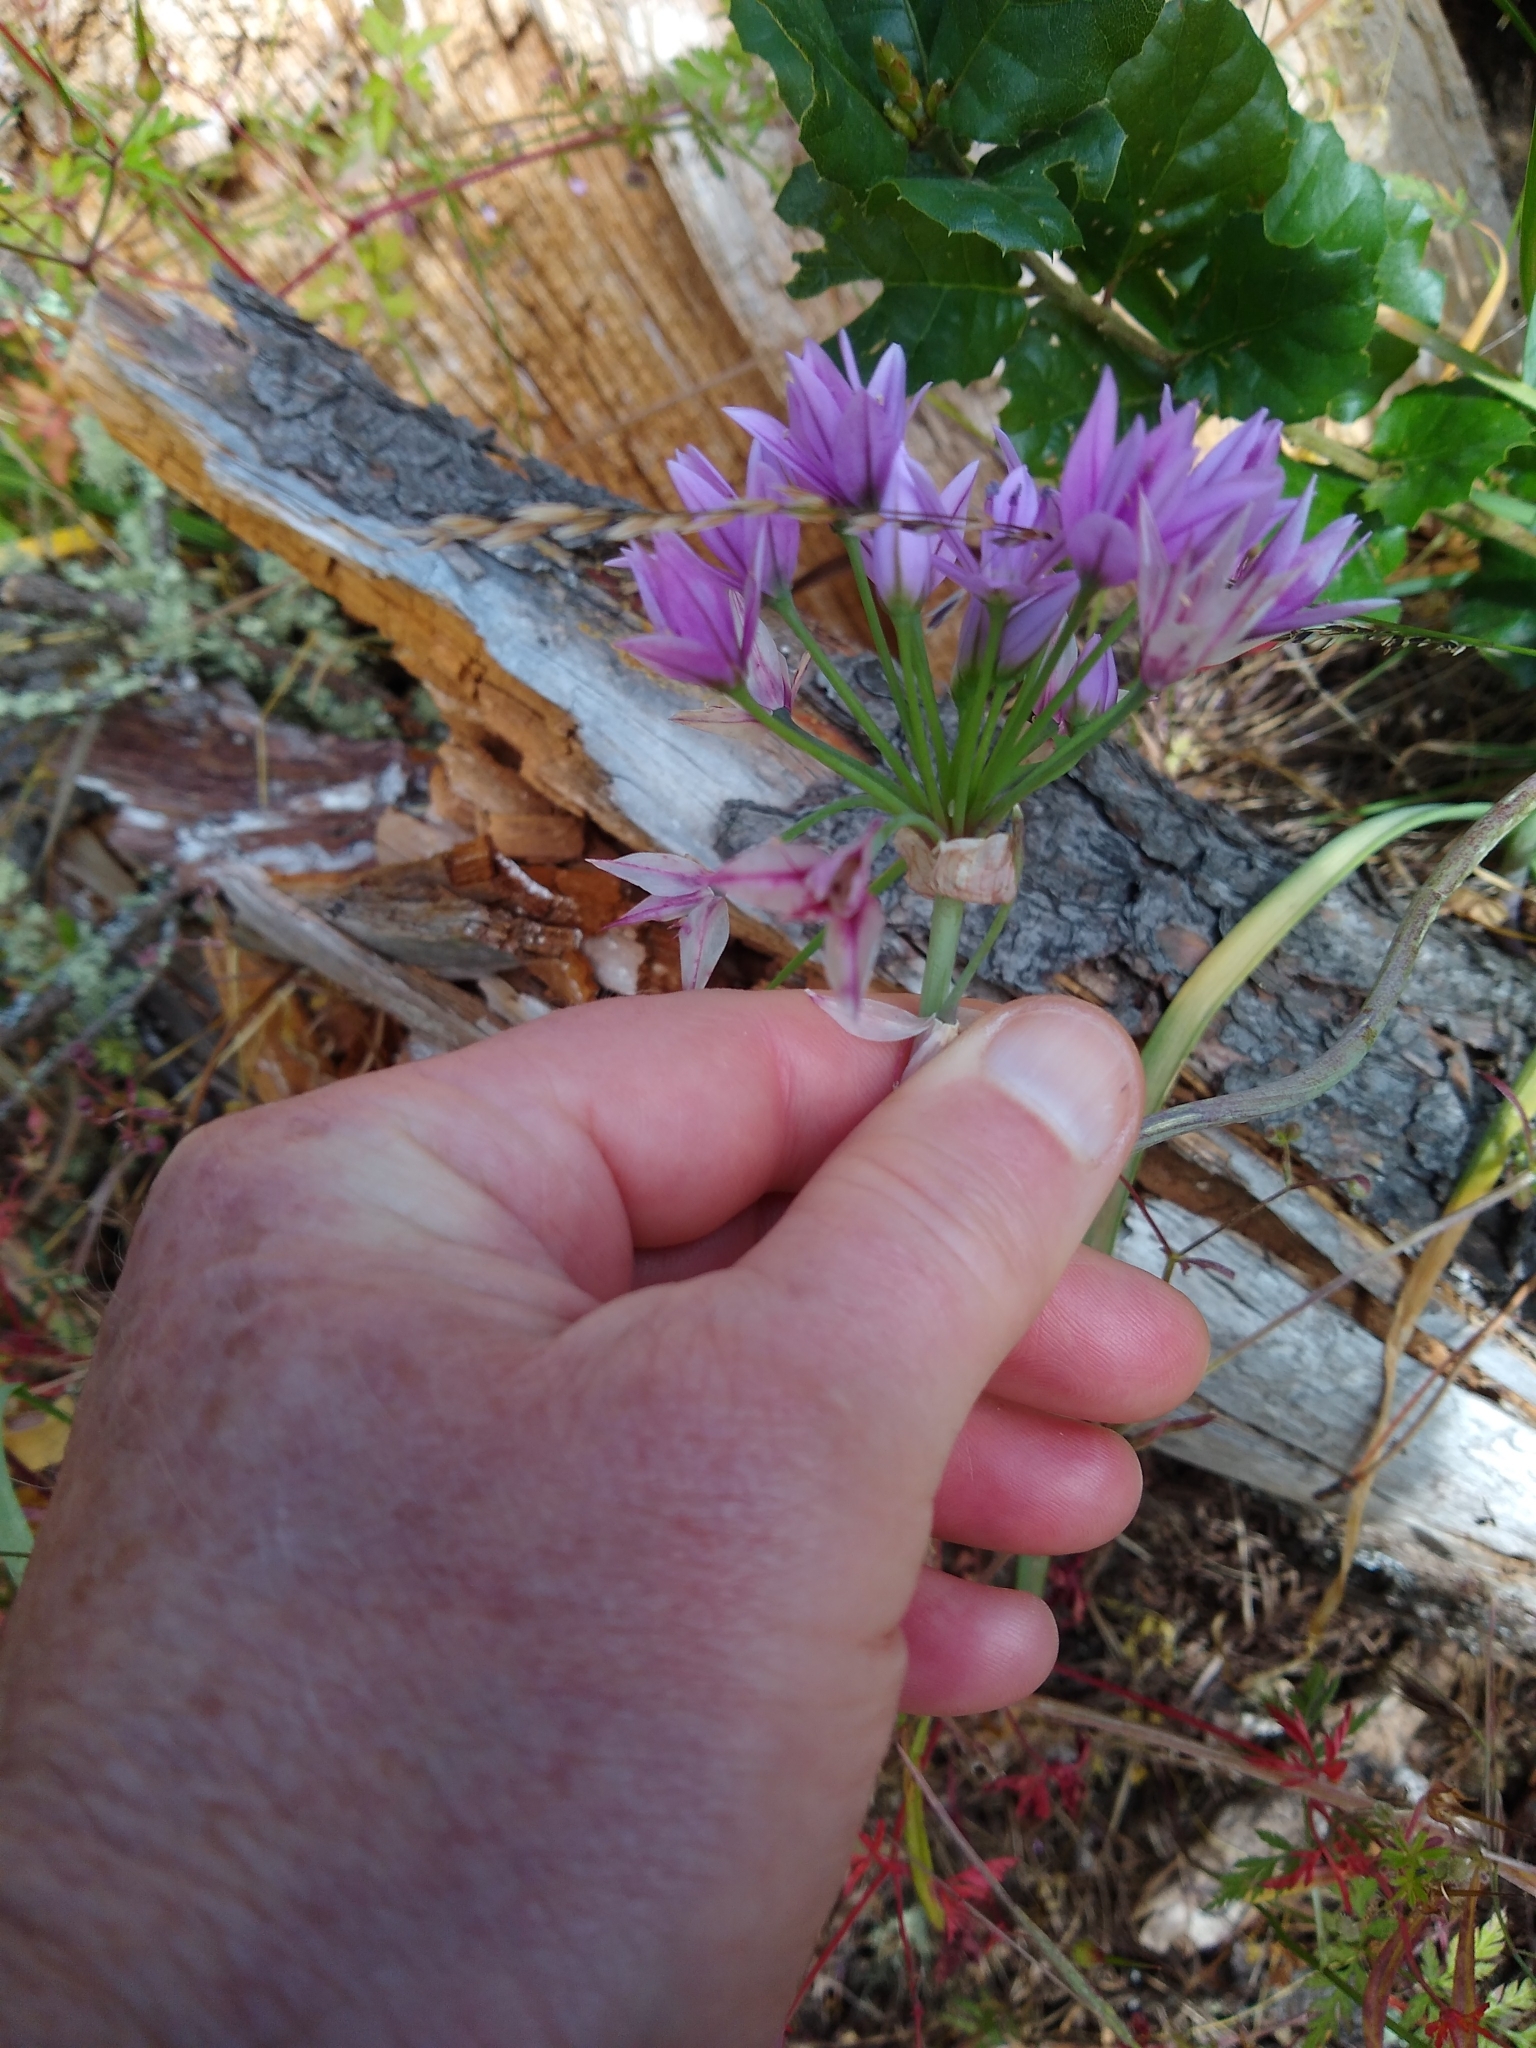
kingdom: Plantae
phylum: Tracheophyta
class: Liliopsida
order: Asparagales
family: Amaryllidaceae
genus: Allium
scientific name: Allium unifolium
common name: American garlic
